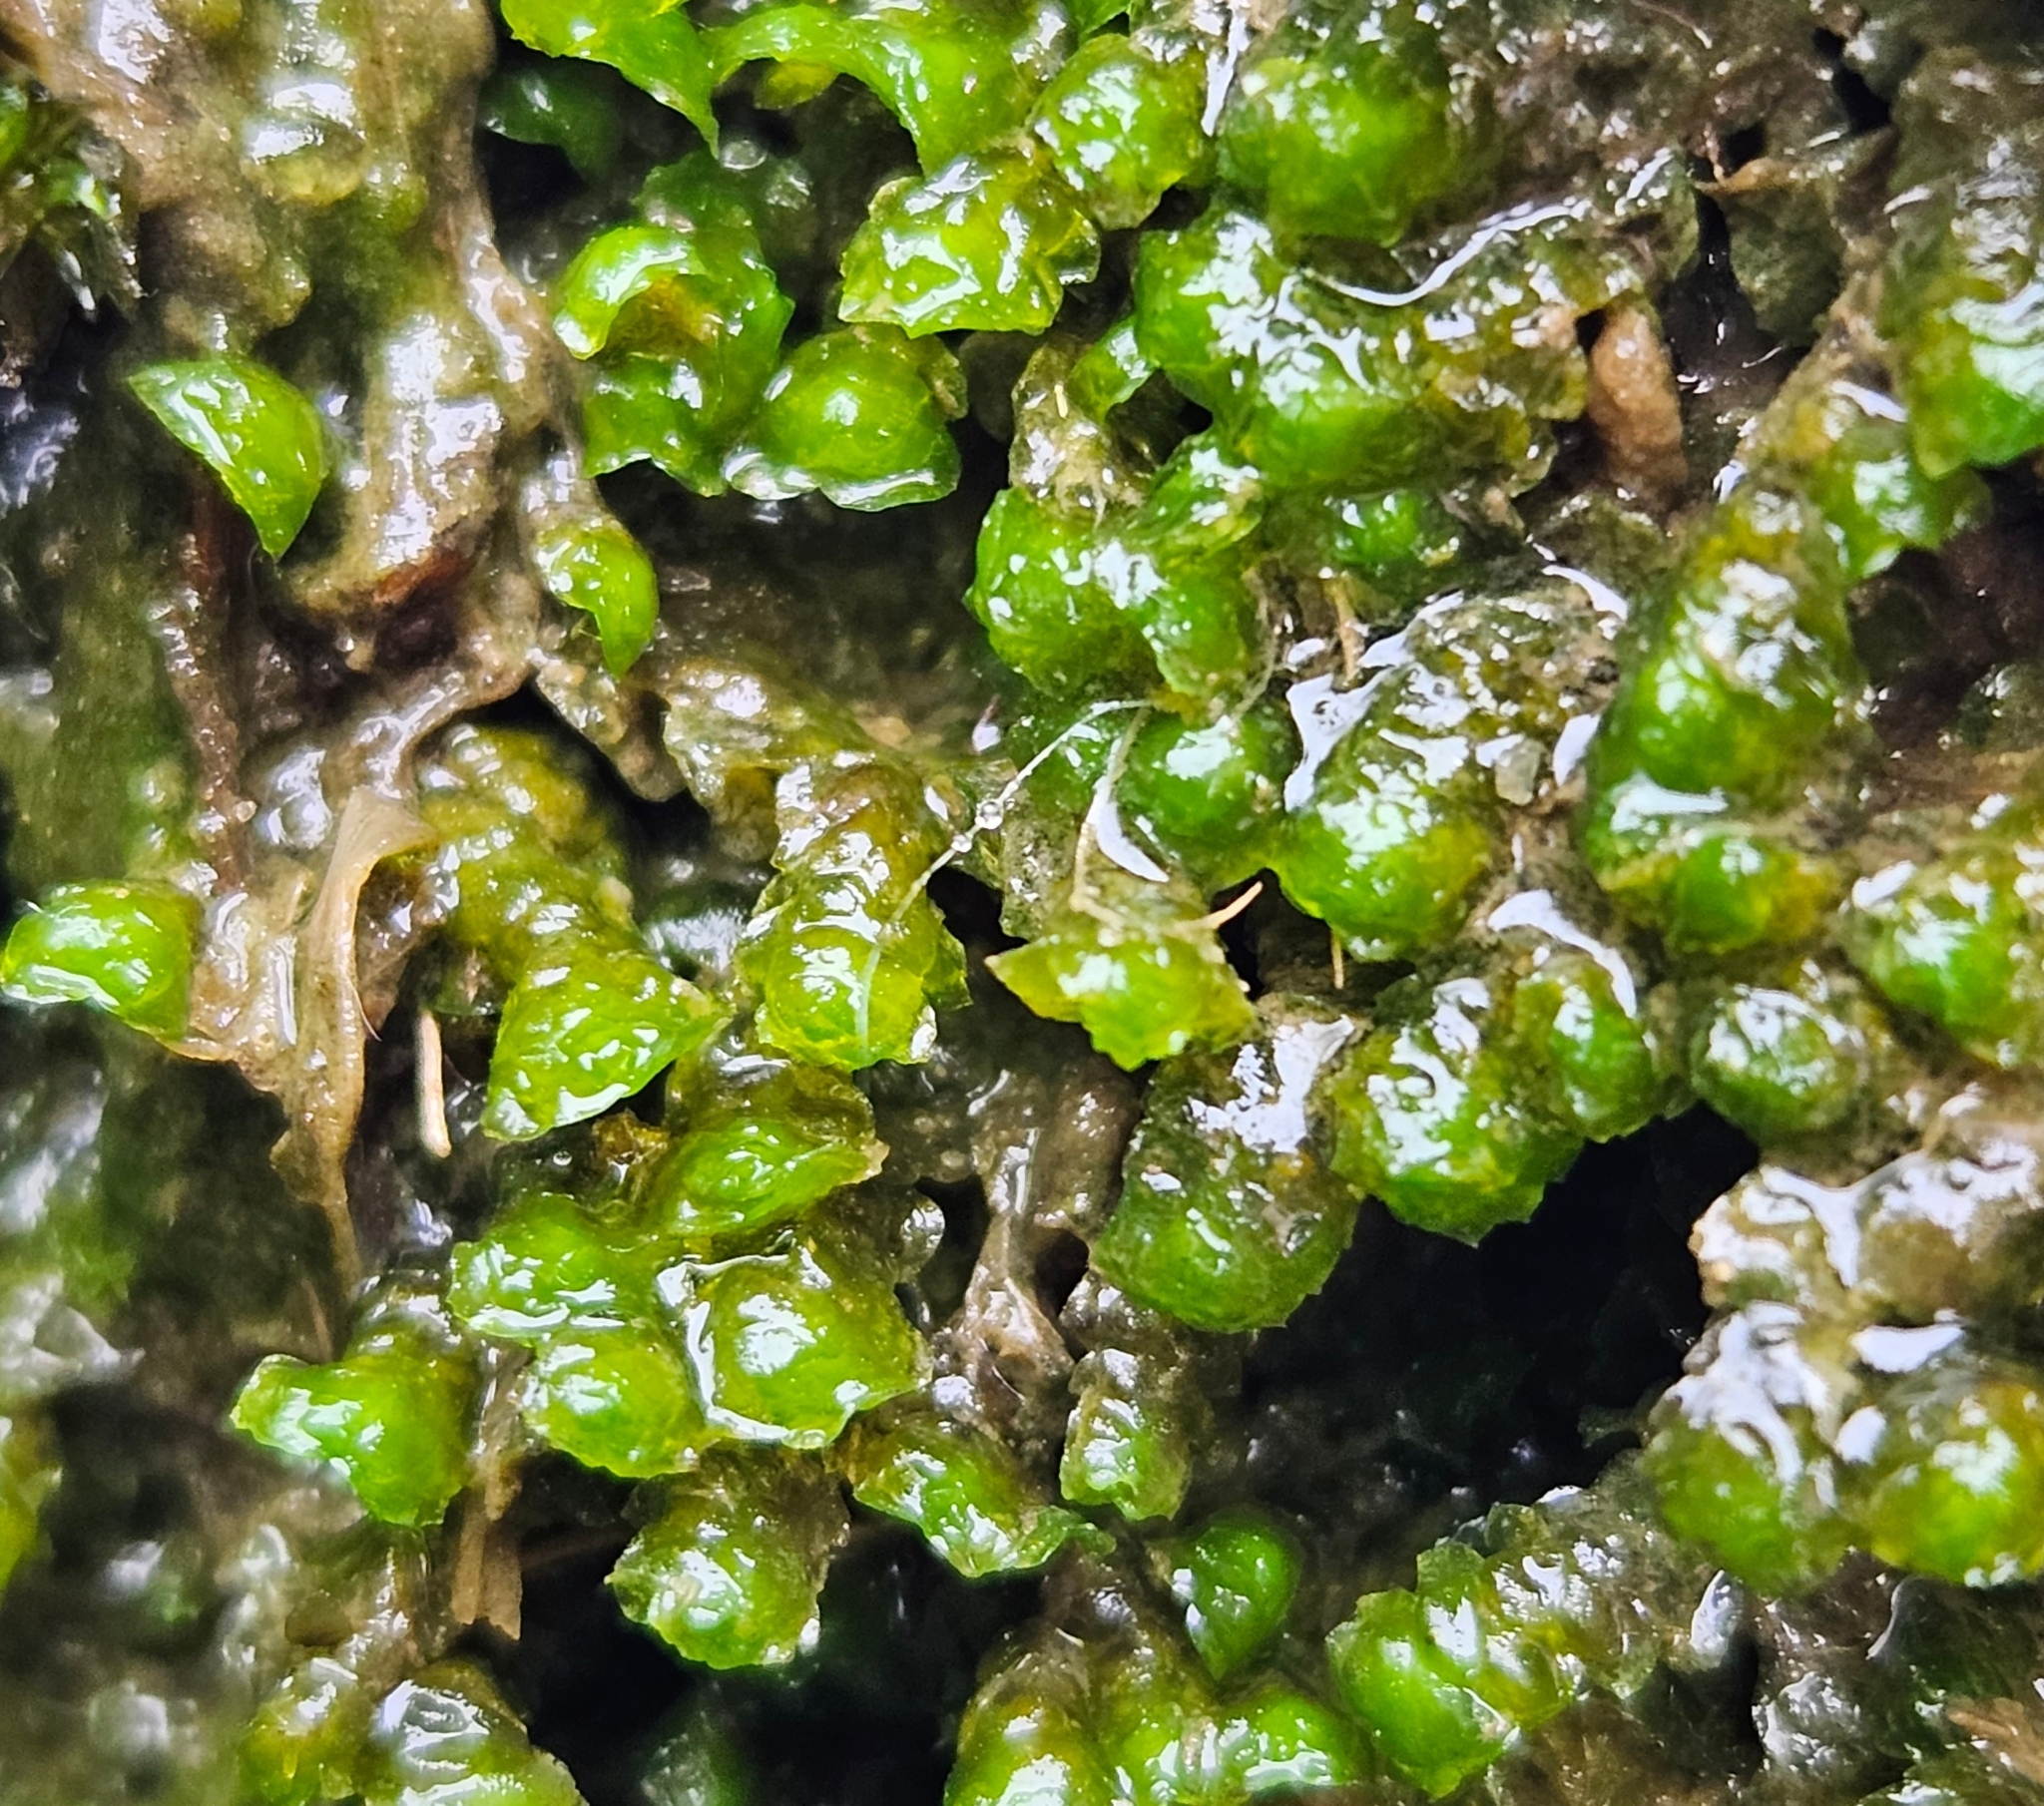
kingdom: Plantae
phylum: Marchantiophyta
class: Jungermanniopsida
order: Jungermanniales
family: Scapaniaceae
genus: Scapania
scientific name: Scapania undulata
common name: Water earwort
